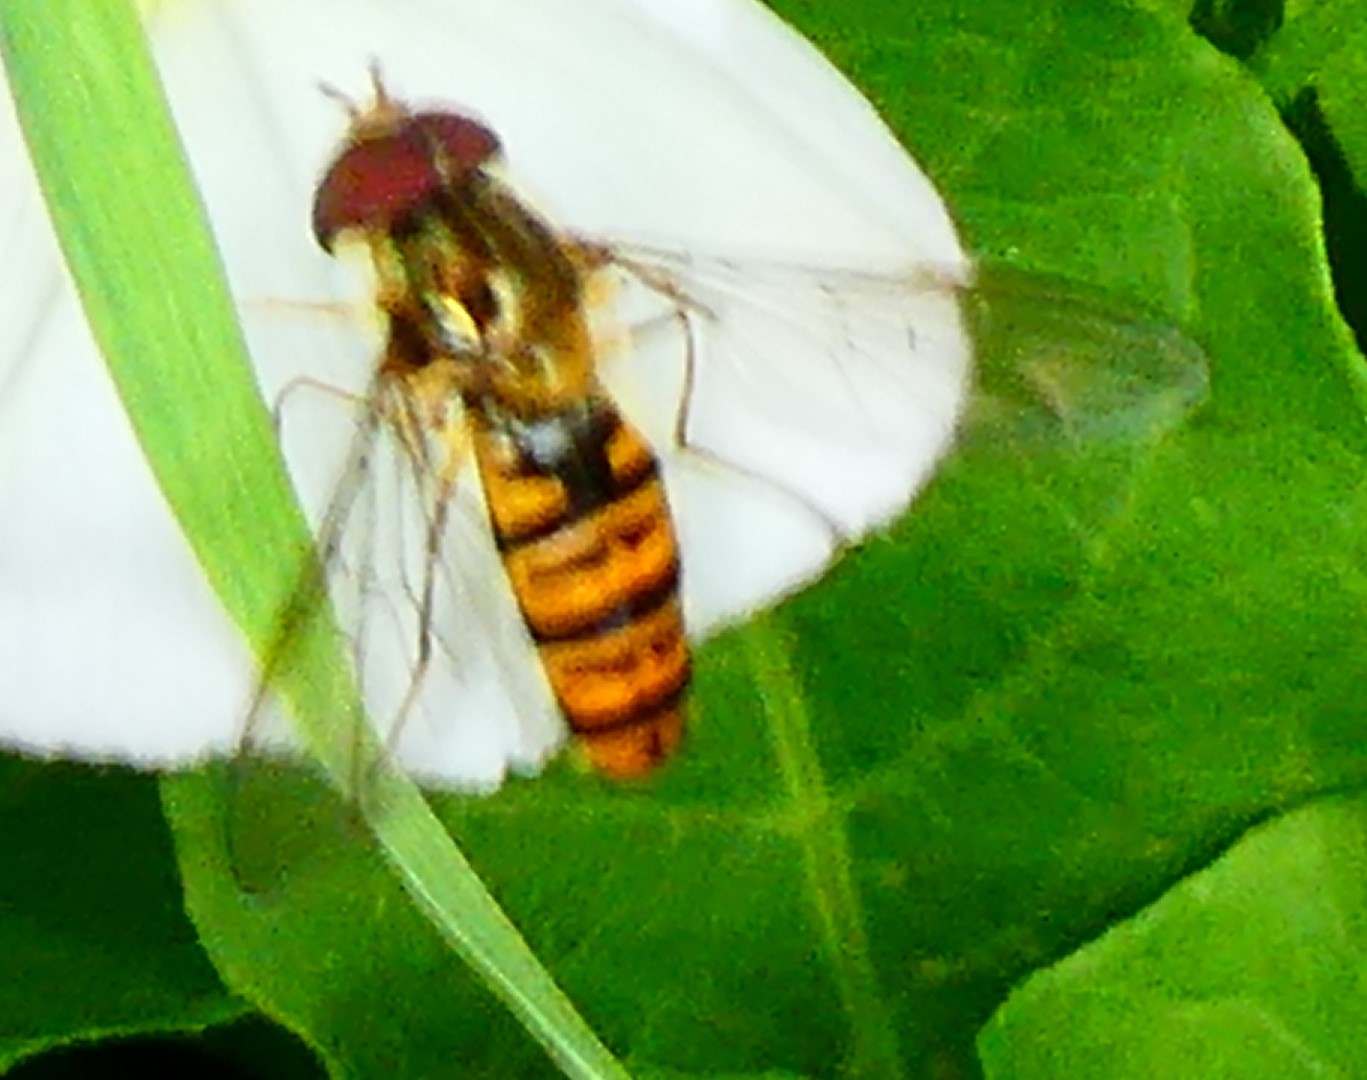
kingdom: Animalia
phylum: Arthropoda
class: Insecta
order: Diptera
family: Syrphidae
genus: Episyrphus
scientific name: Episyrphus balteatus
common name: Marmalade hoverfly
